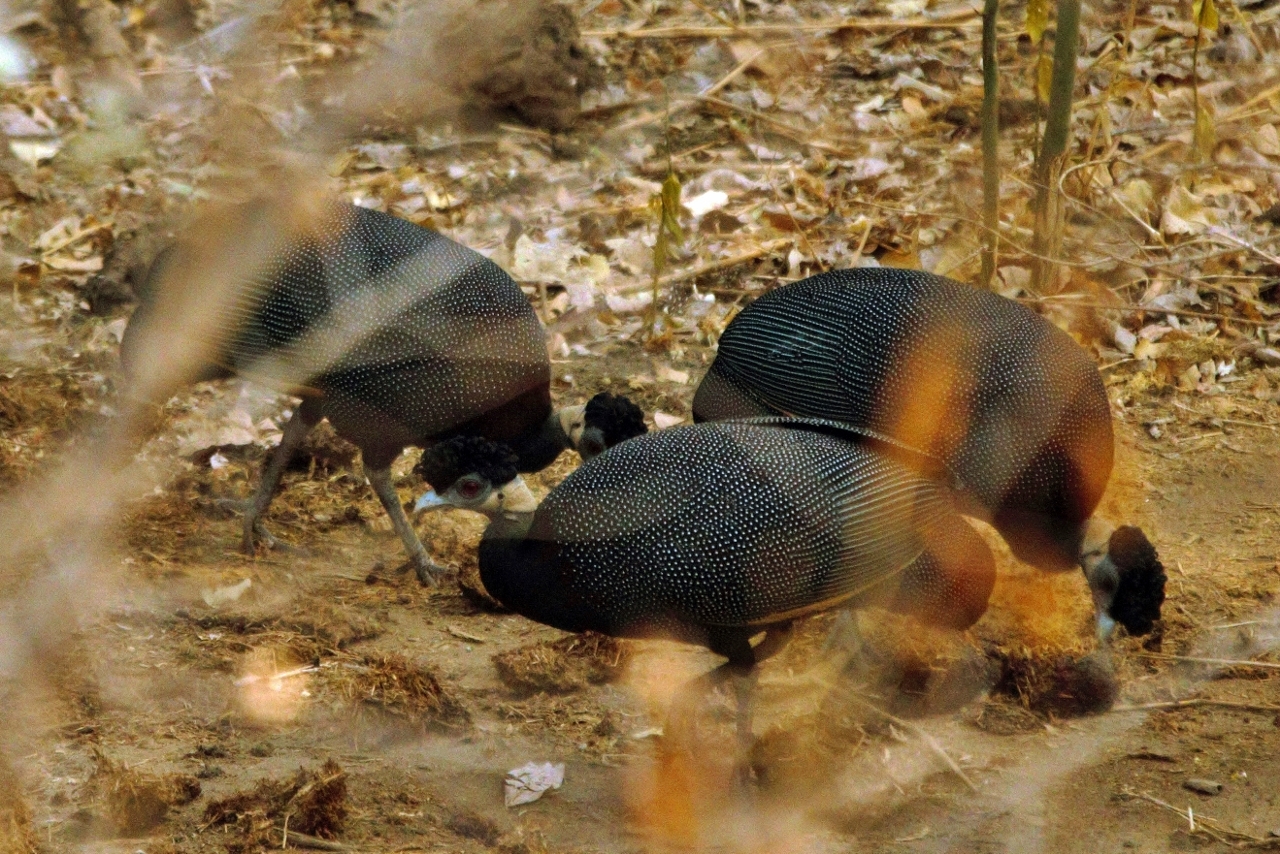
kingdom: Animalia
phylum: Chordata
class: Aves
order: Galliformes
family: Numididae
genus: Guttera
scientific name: Guttera pucherani
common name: Crested guineafowl
